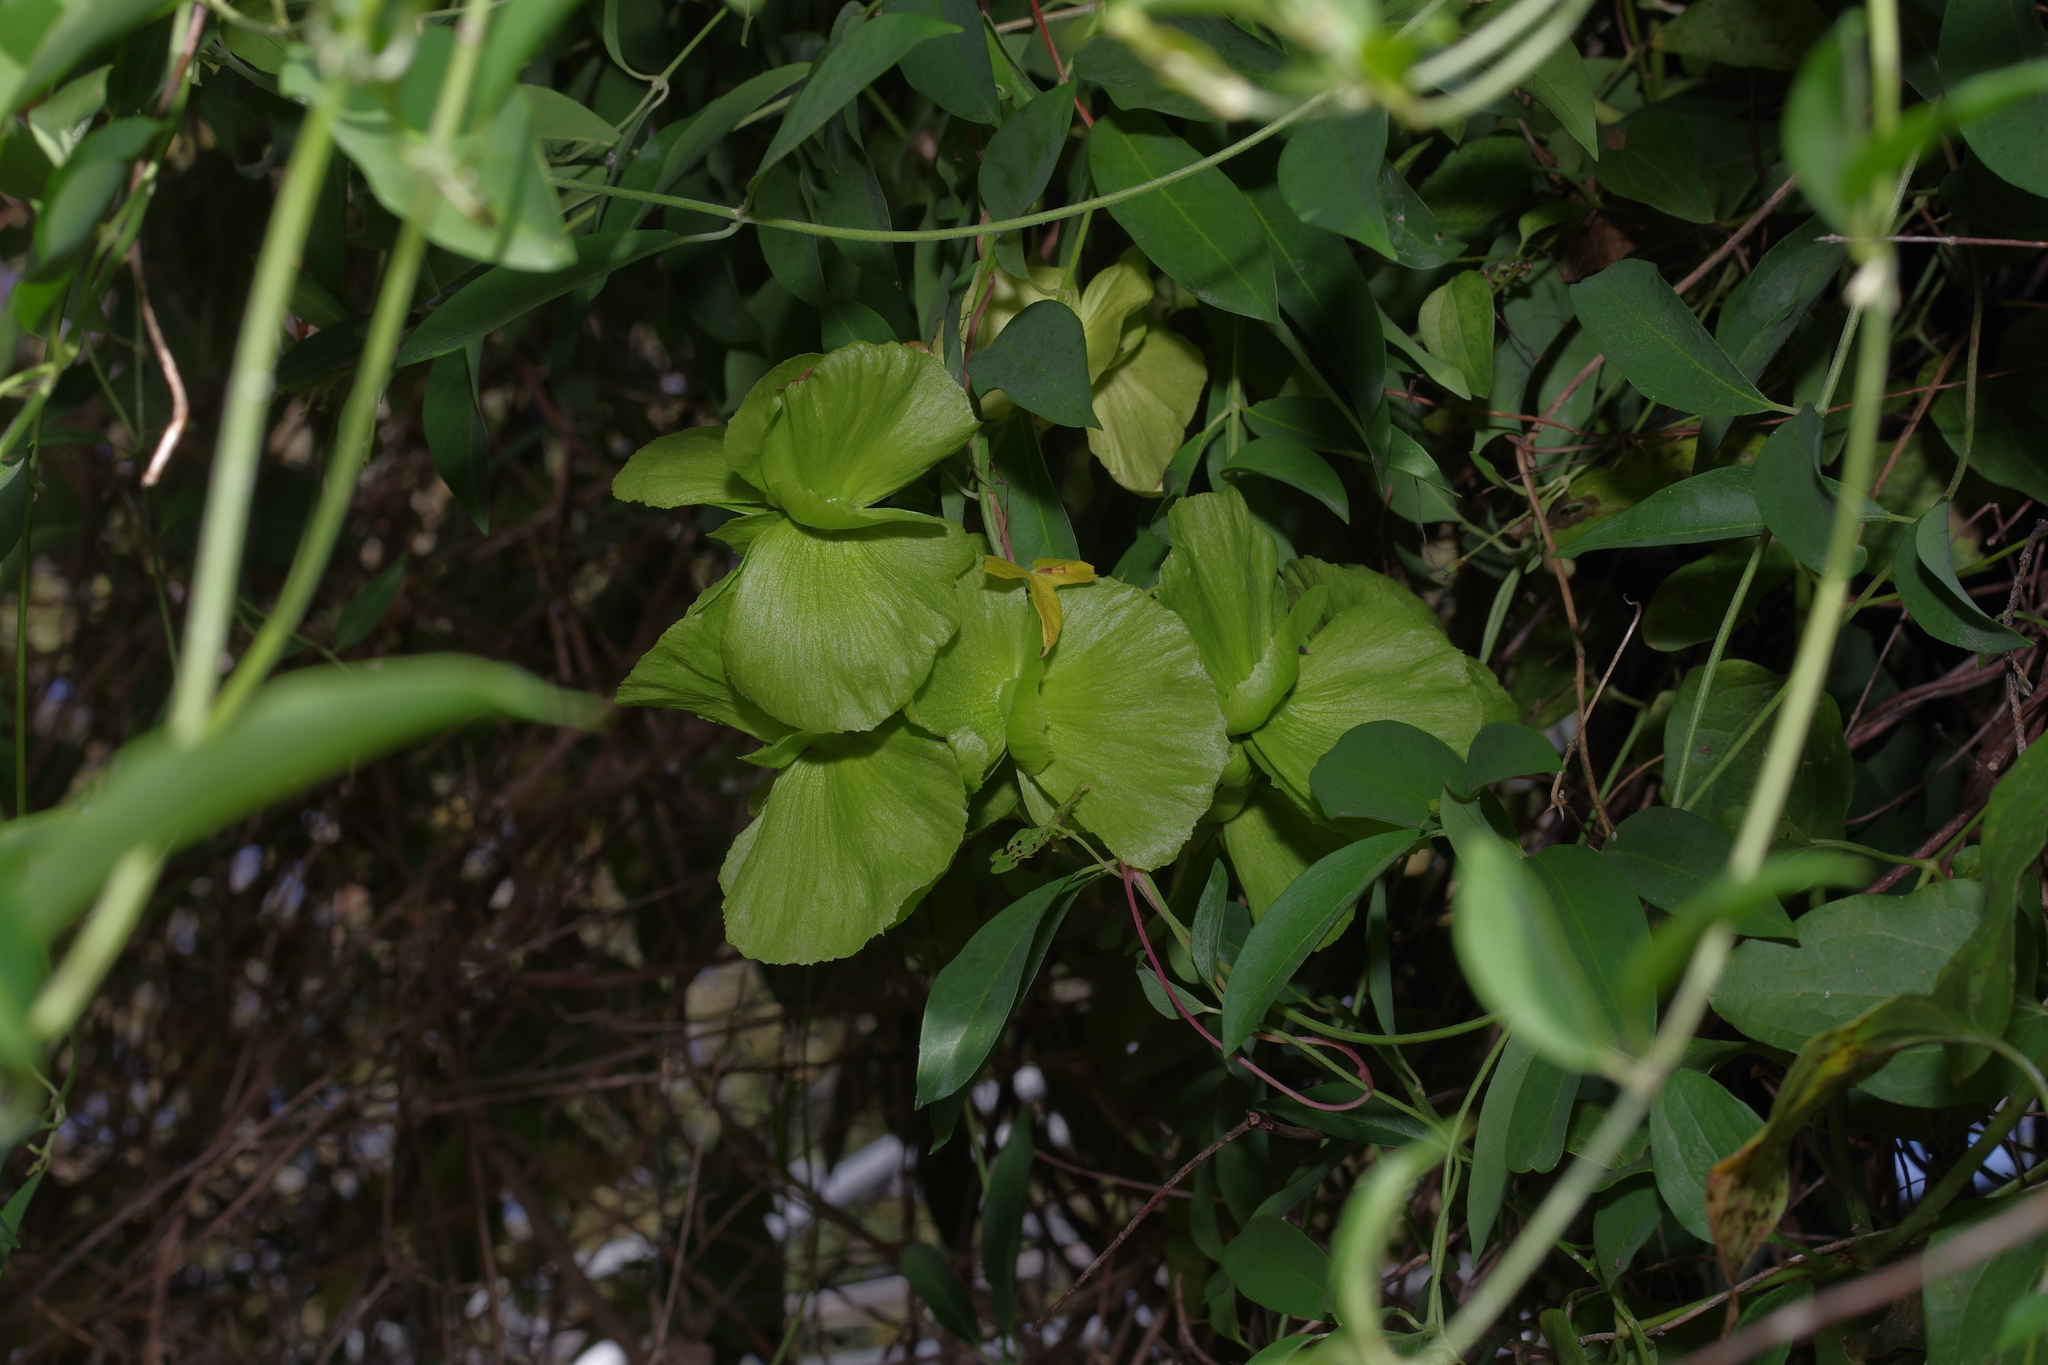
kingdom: Plantae
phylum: Tracheophyta
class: Magnoliopsida
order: Malpighiales
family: Malpighiaceae
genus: Callaeum
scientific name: Callaeum macropterum
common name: Mexican butterfly-vine
